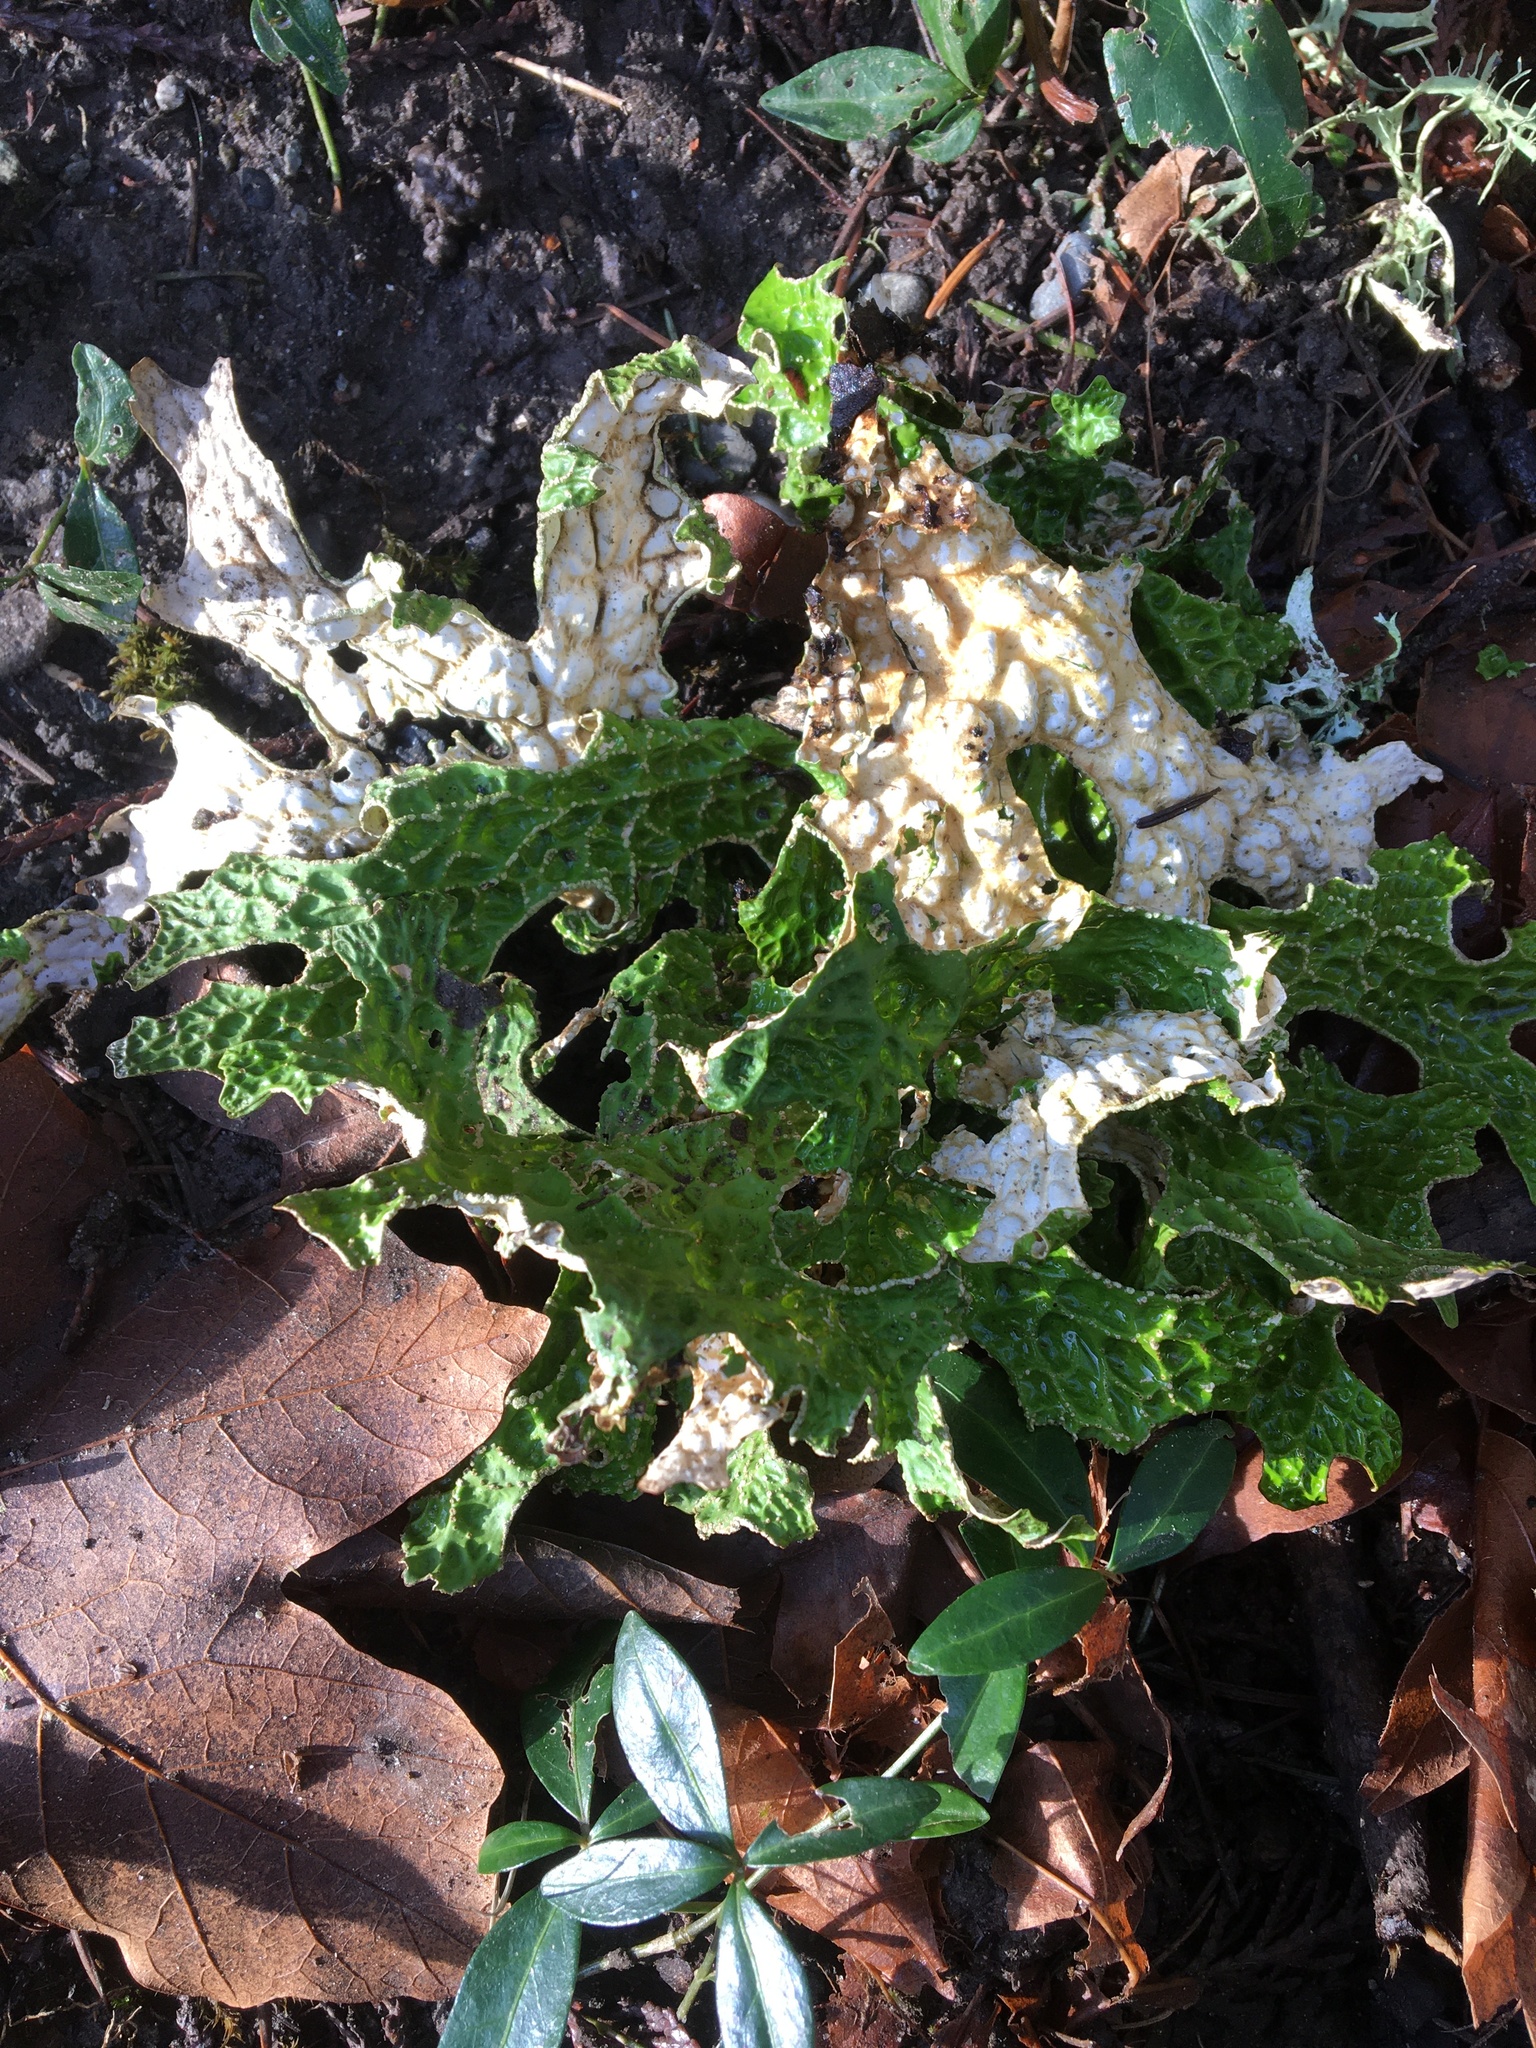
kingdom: Fungi
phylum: Ascomycota
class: Lecanoromycetes
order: Peltigerales
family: Lobariaceae
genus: Lobaria
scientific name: Lobaria pulmonaria
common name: Lungwort
